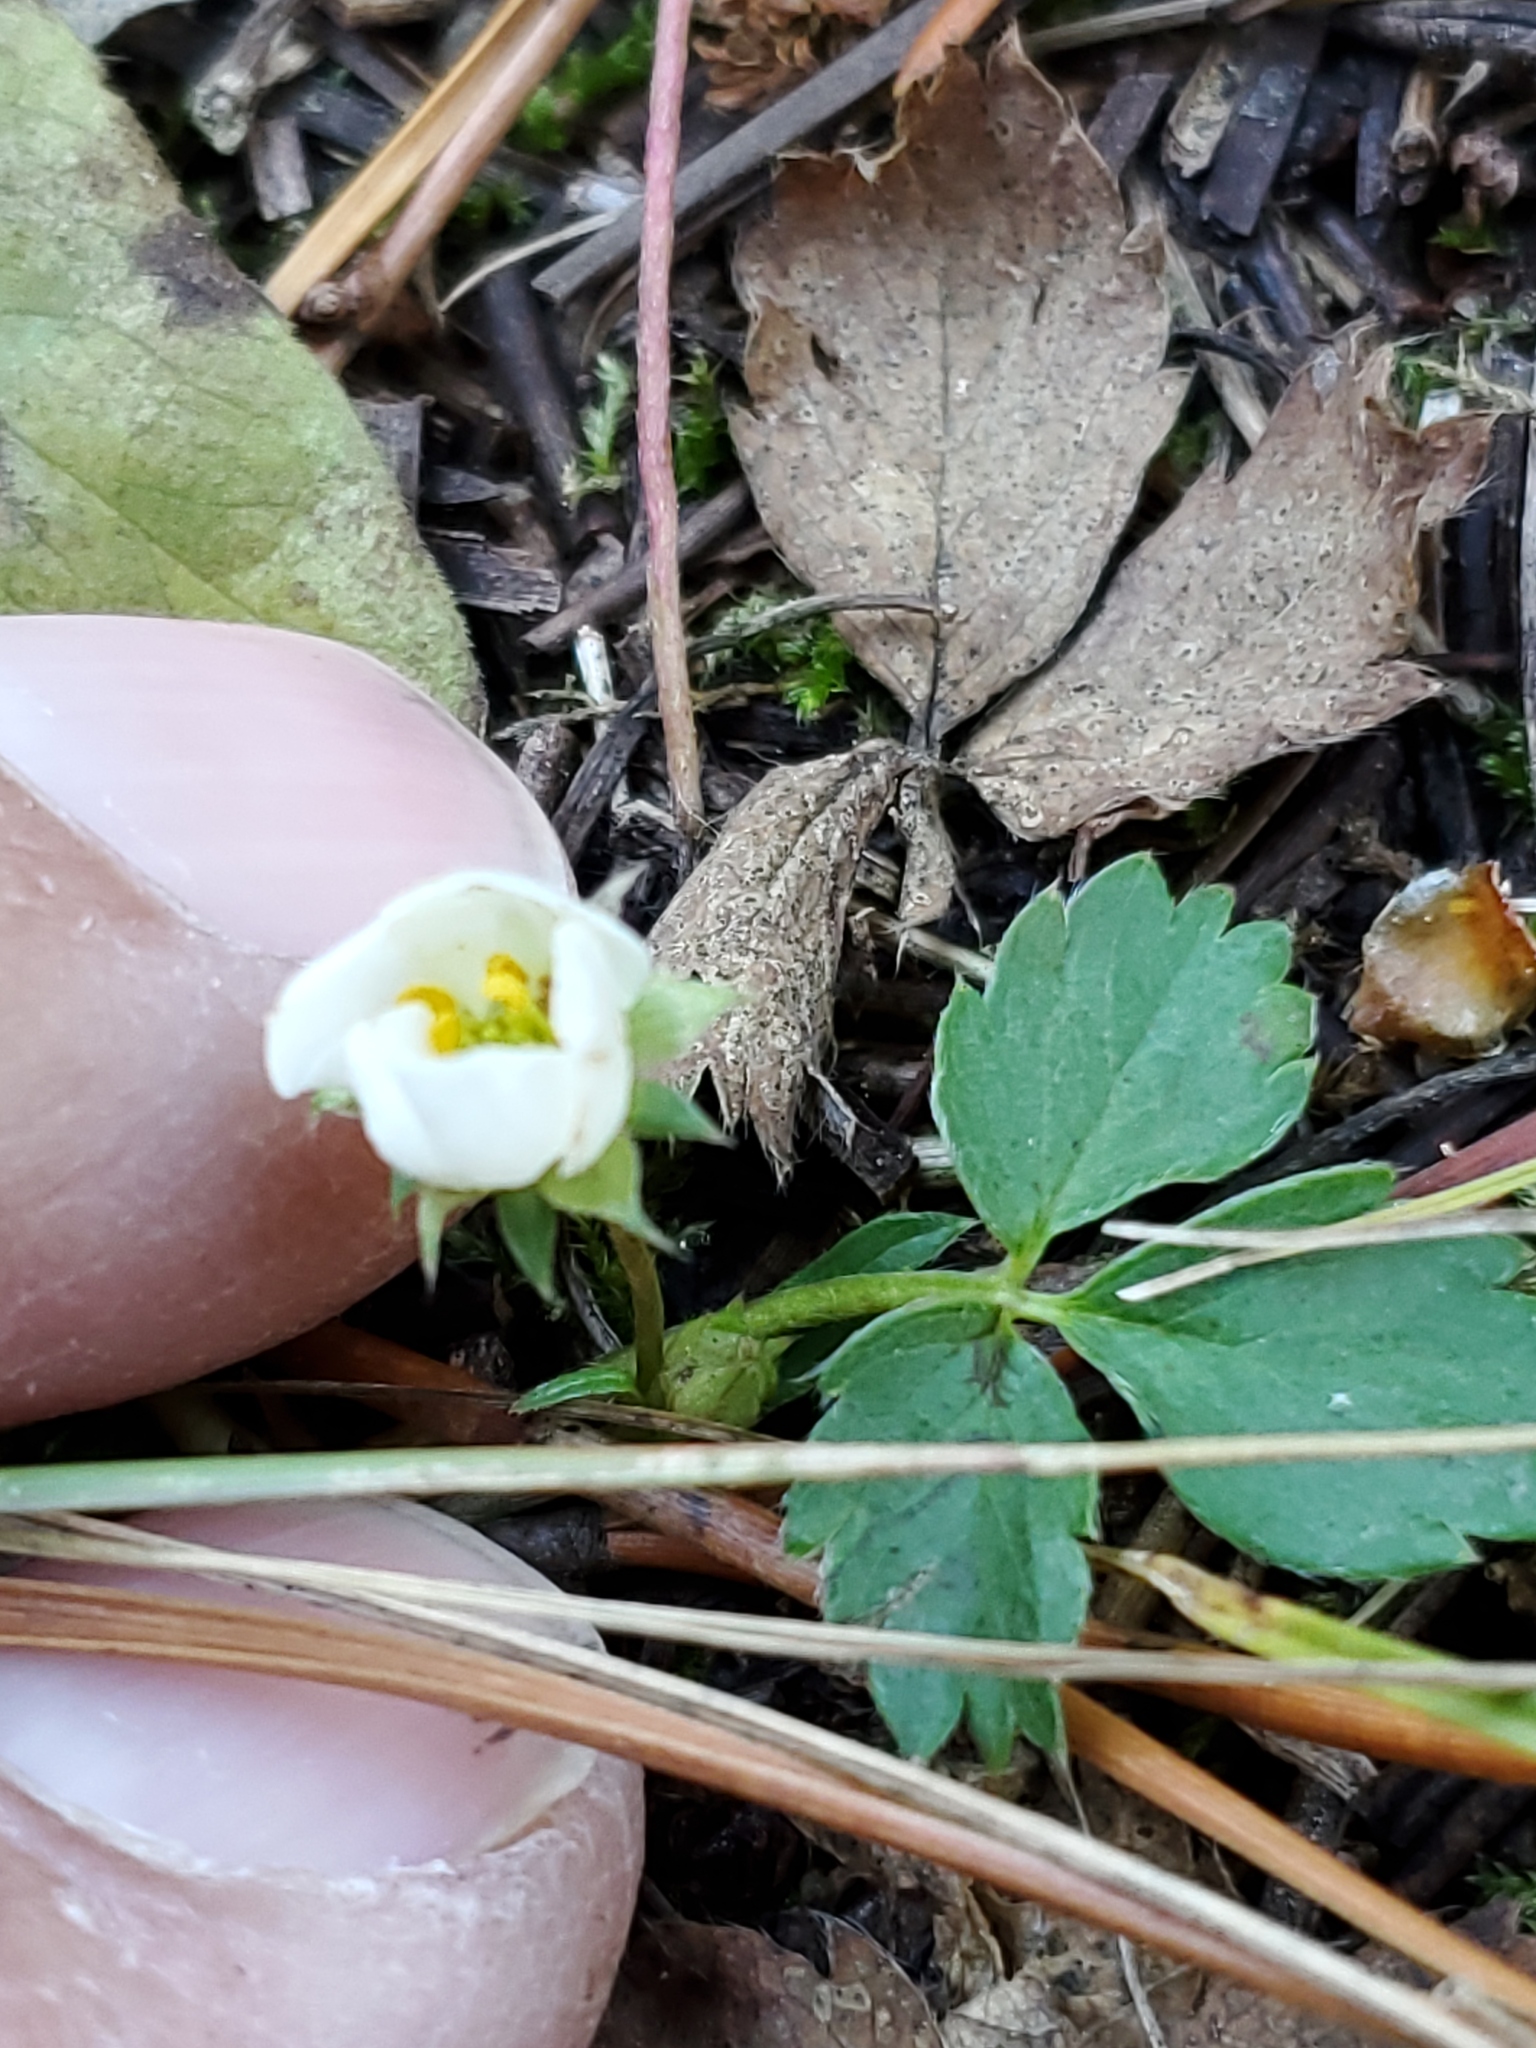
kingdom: Plantae
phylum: Tracheophyta
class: Magnoliopsida
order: Rosales
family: Rosaceae
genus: Fragaria
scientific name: Fragaria virginiana
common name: Thickleaved wild strawberry
